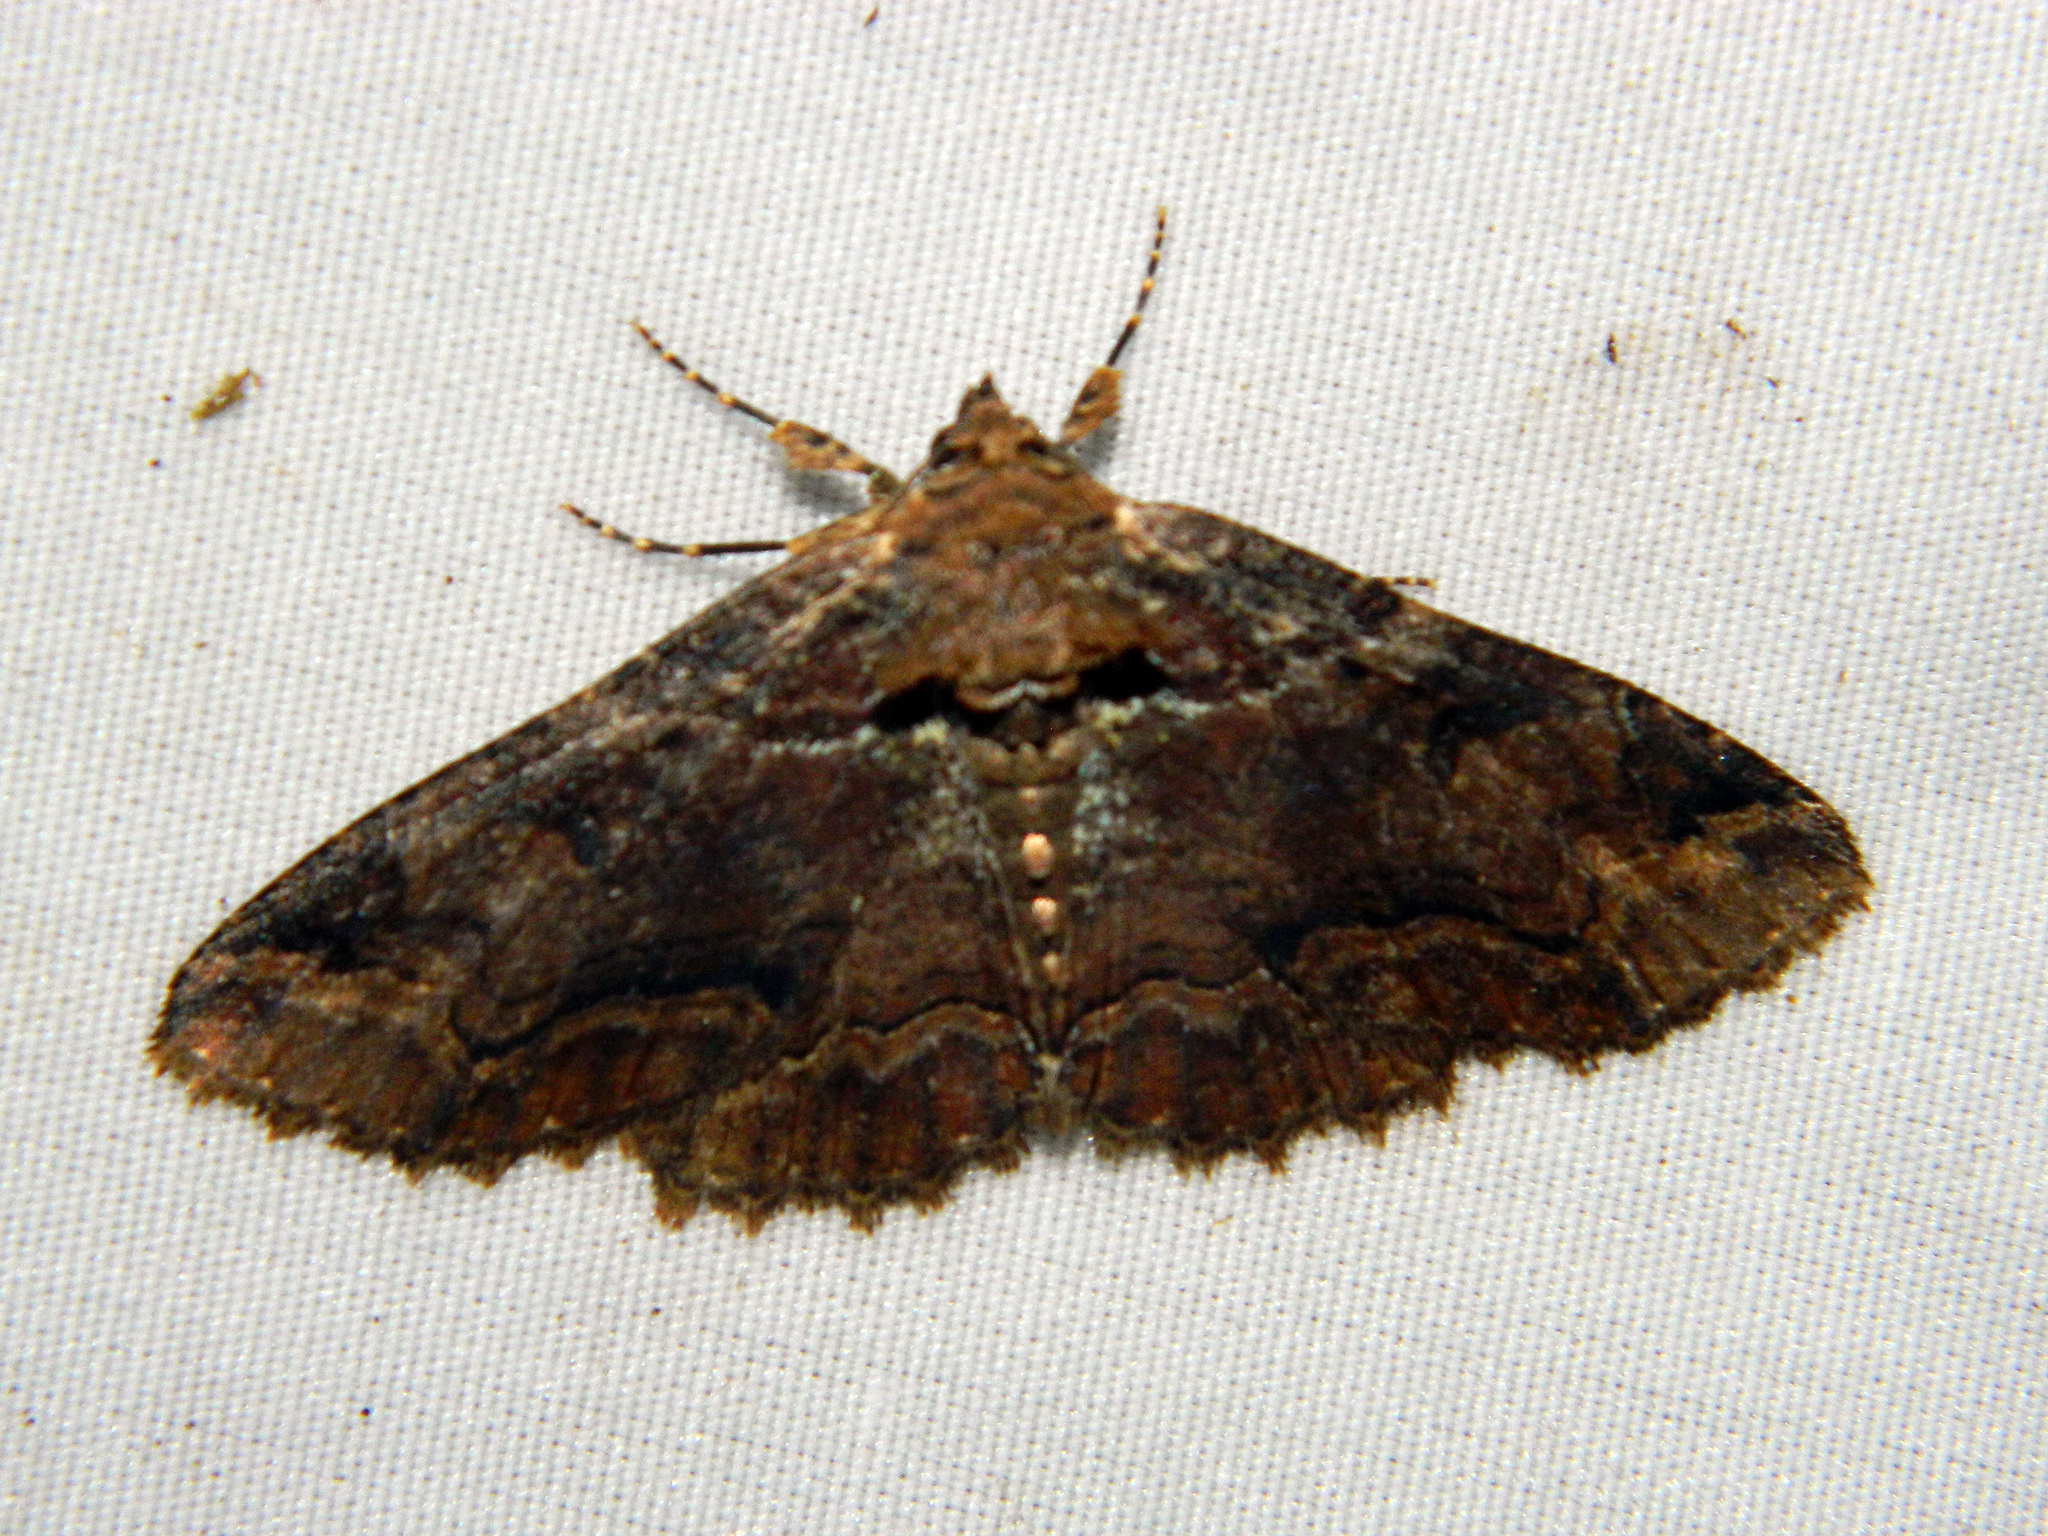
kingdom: Animalia
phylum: Arthropoda
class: Insecta
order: Lepidoptera
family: Erebidae
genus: Zale
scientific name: Zale minerea
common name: Colorful zale moth
